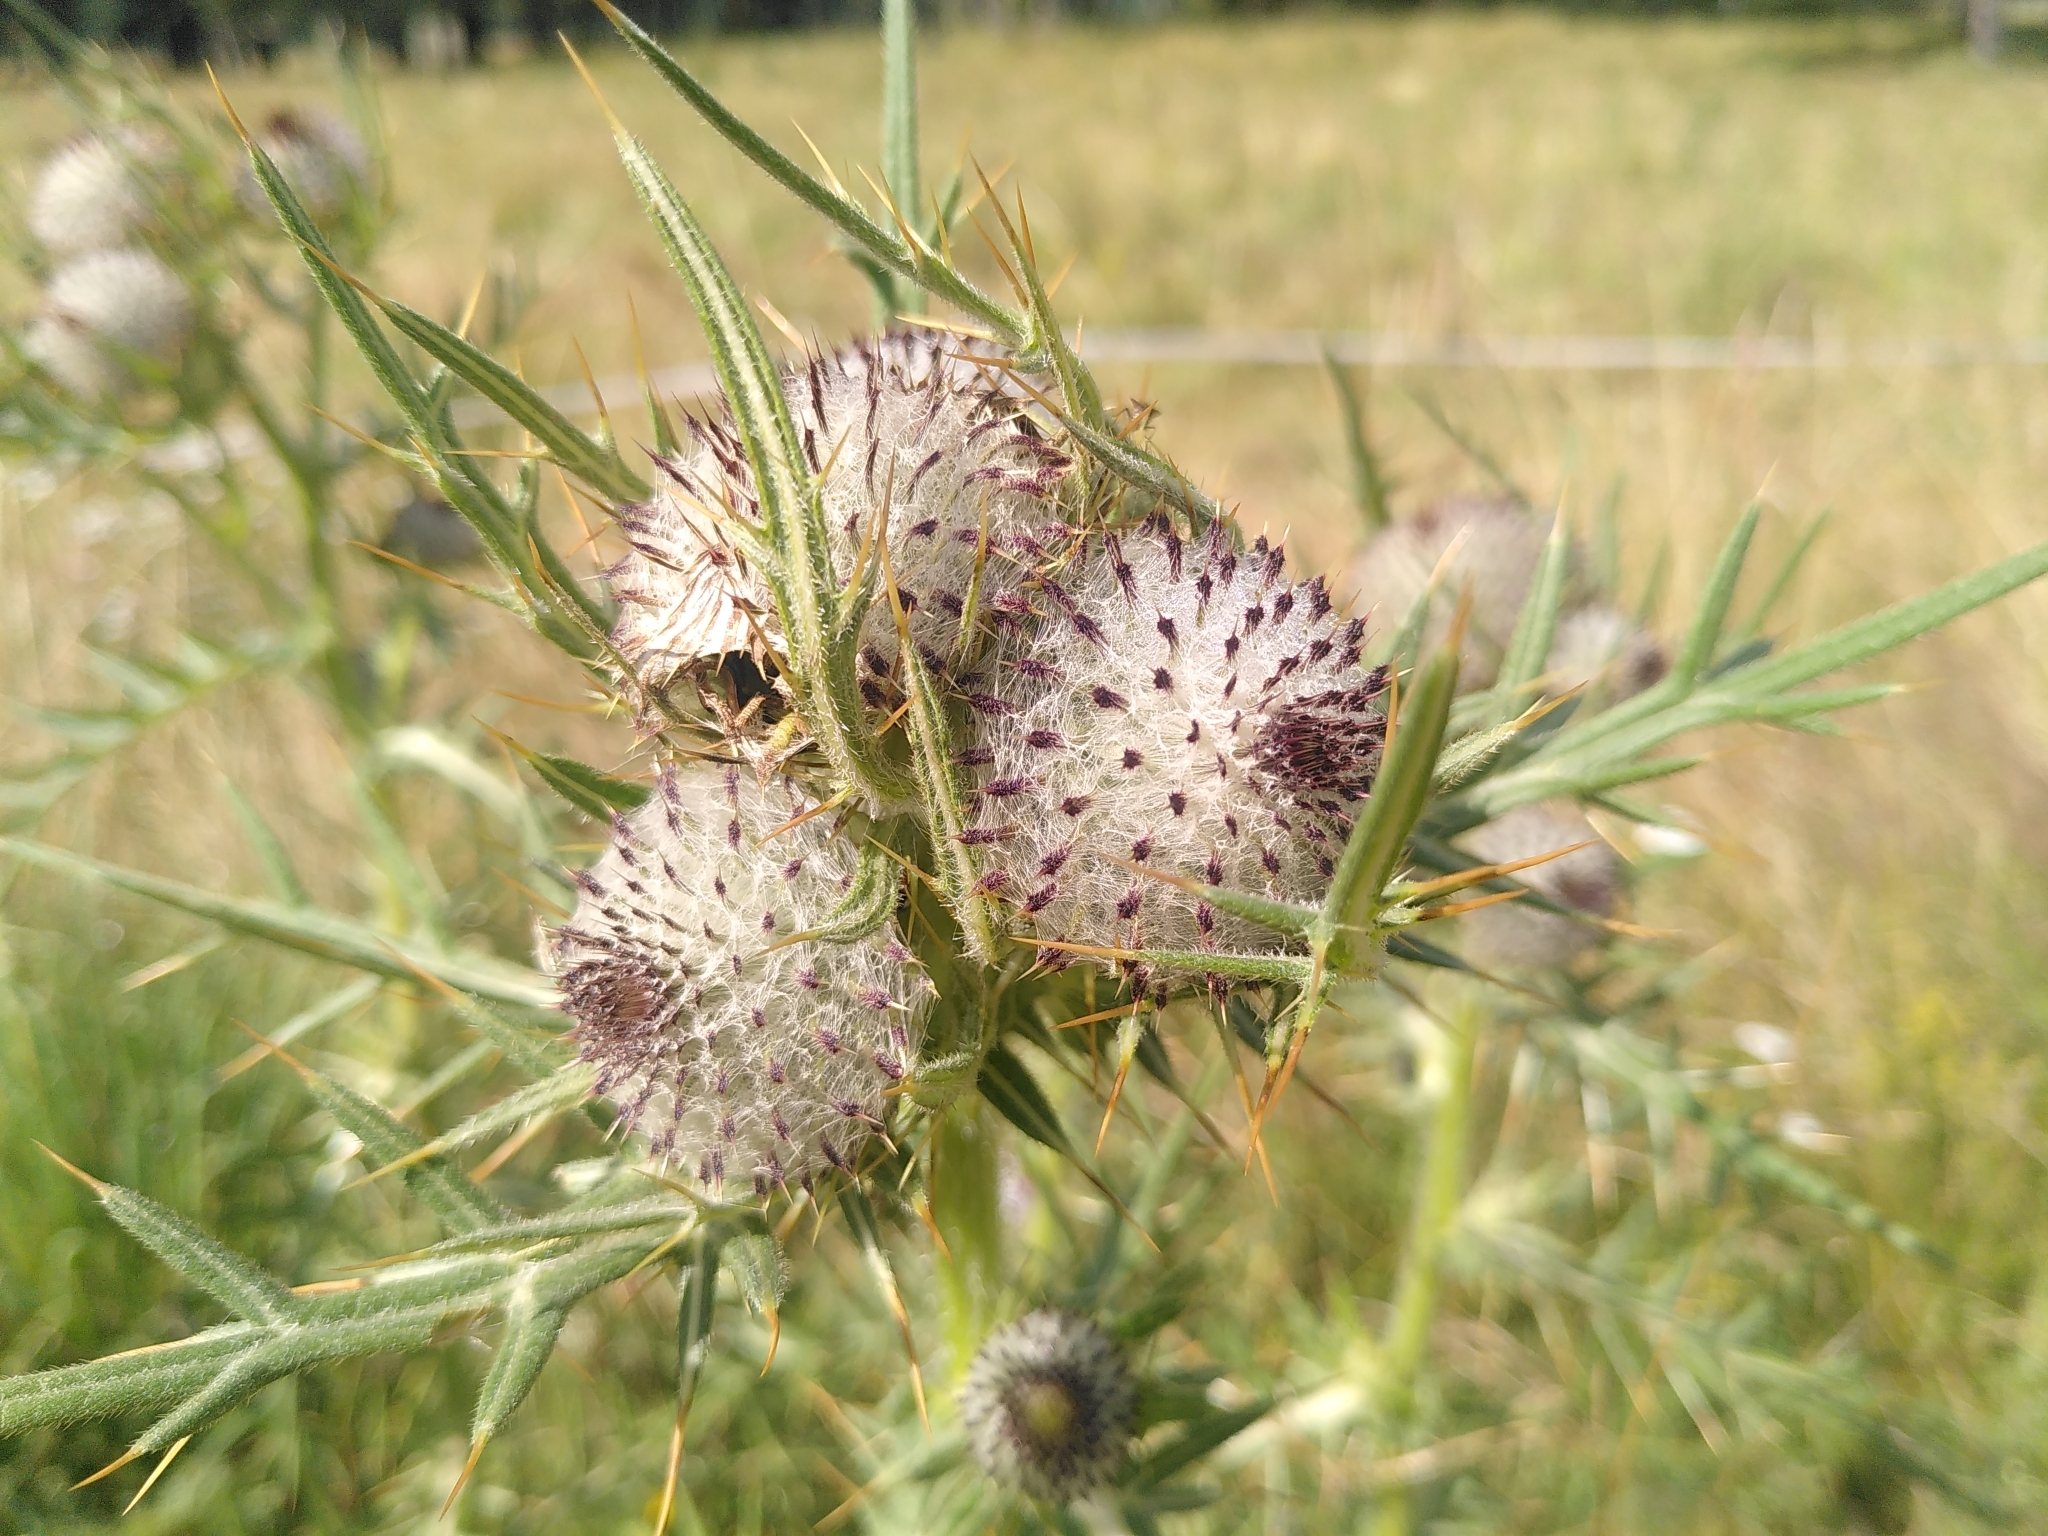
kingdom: Plantae
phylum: Tracheophyta
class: Magnoliopsida
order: Asterales
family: Asteraceae
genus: Lophiolepis
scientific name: Lophiolepis eriophora
